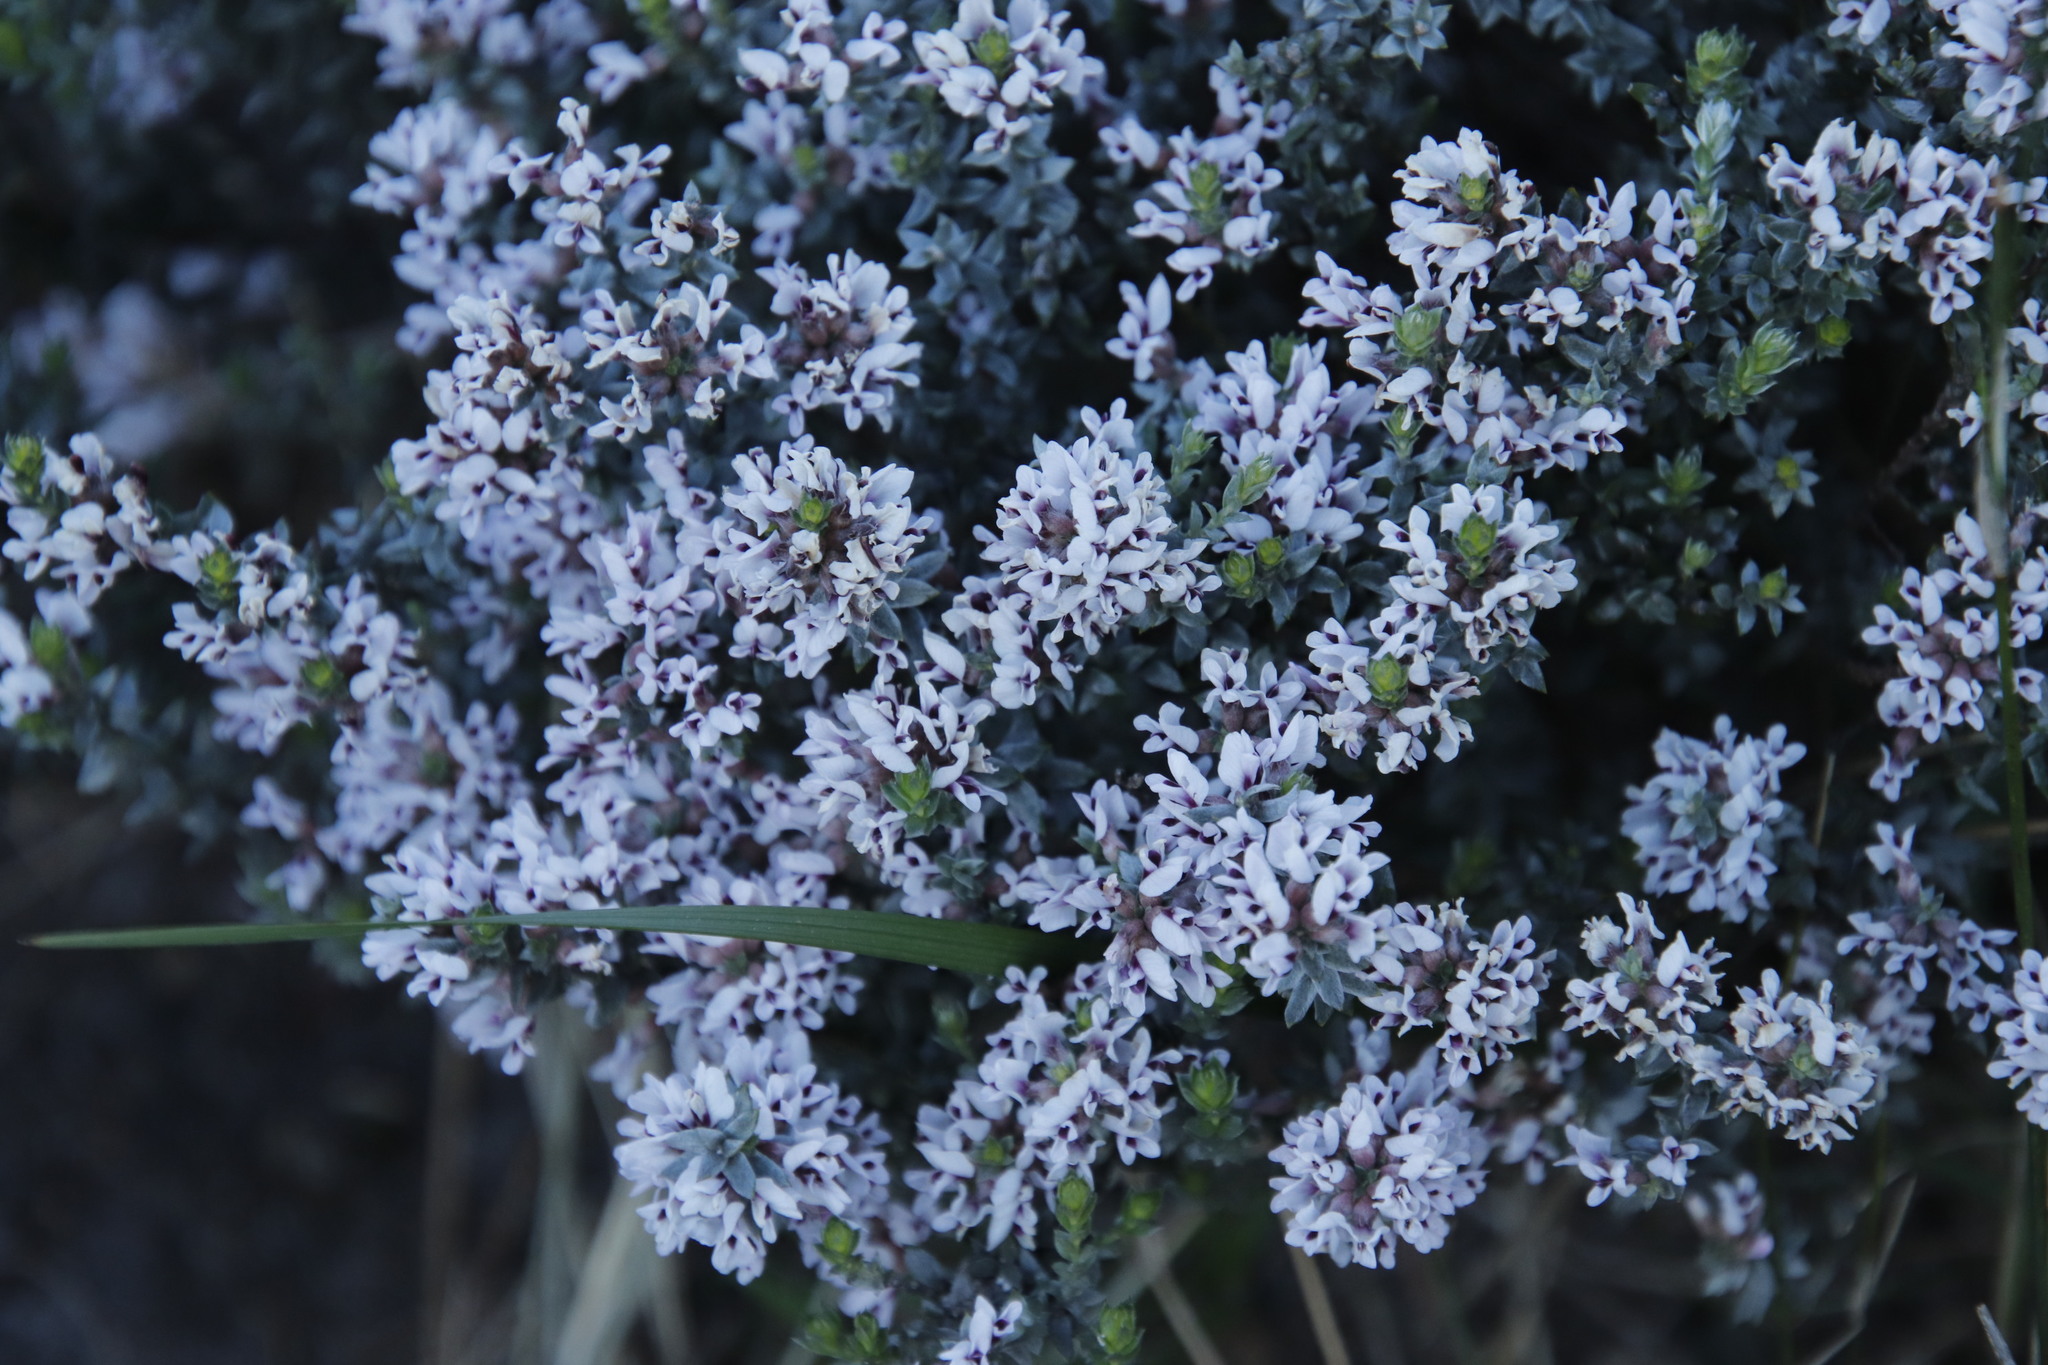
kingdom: Plantae
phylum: Tracheophyta
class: Magnoliopsida
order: Fabales
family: Fabaceae
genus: Amphithalea
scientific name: Amphithalea ericifolia
